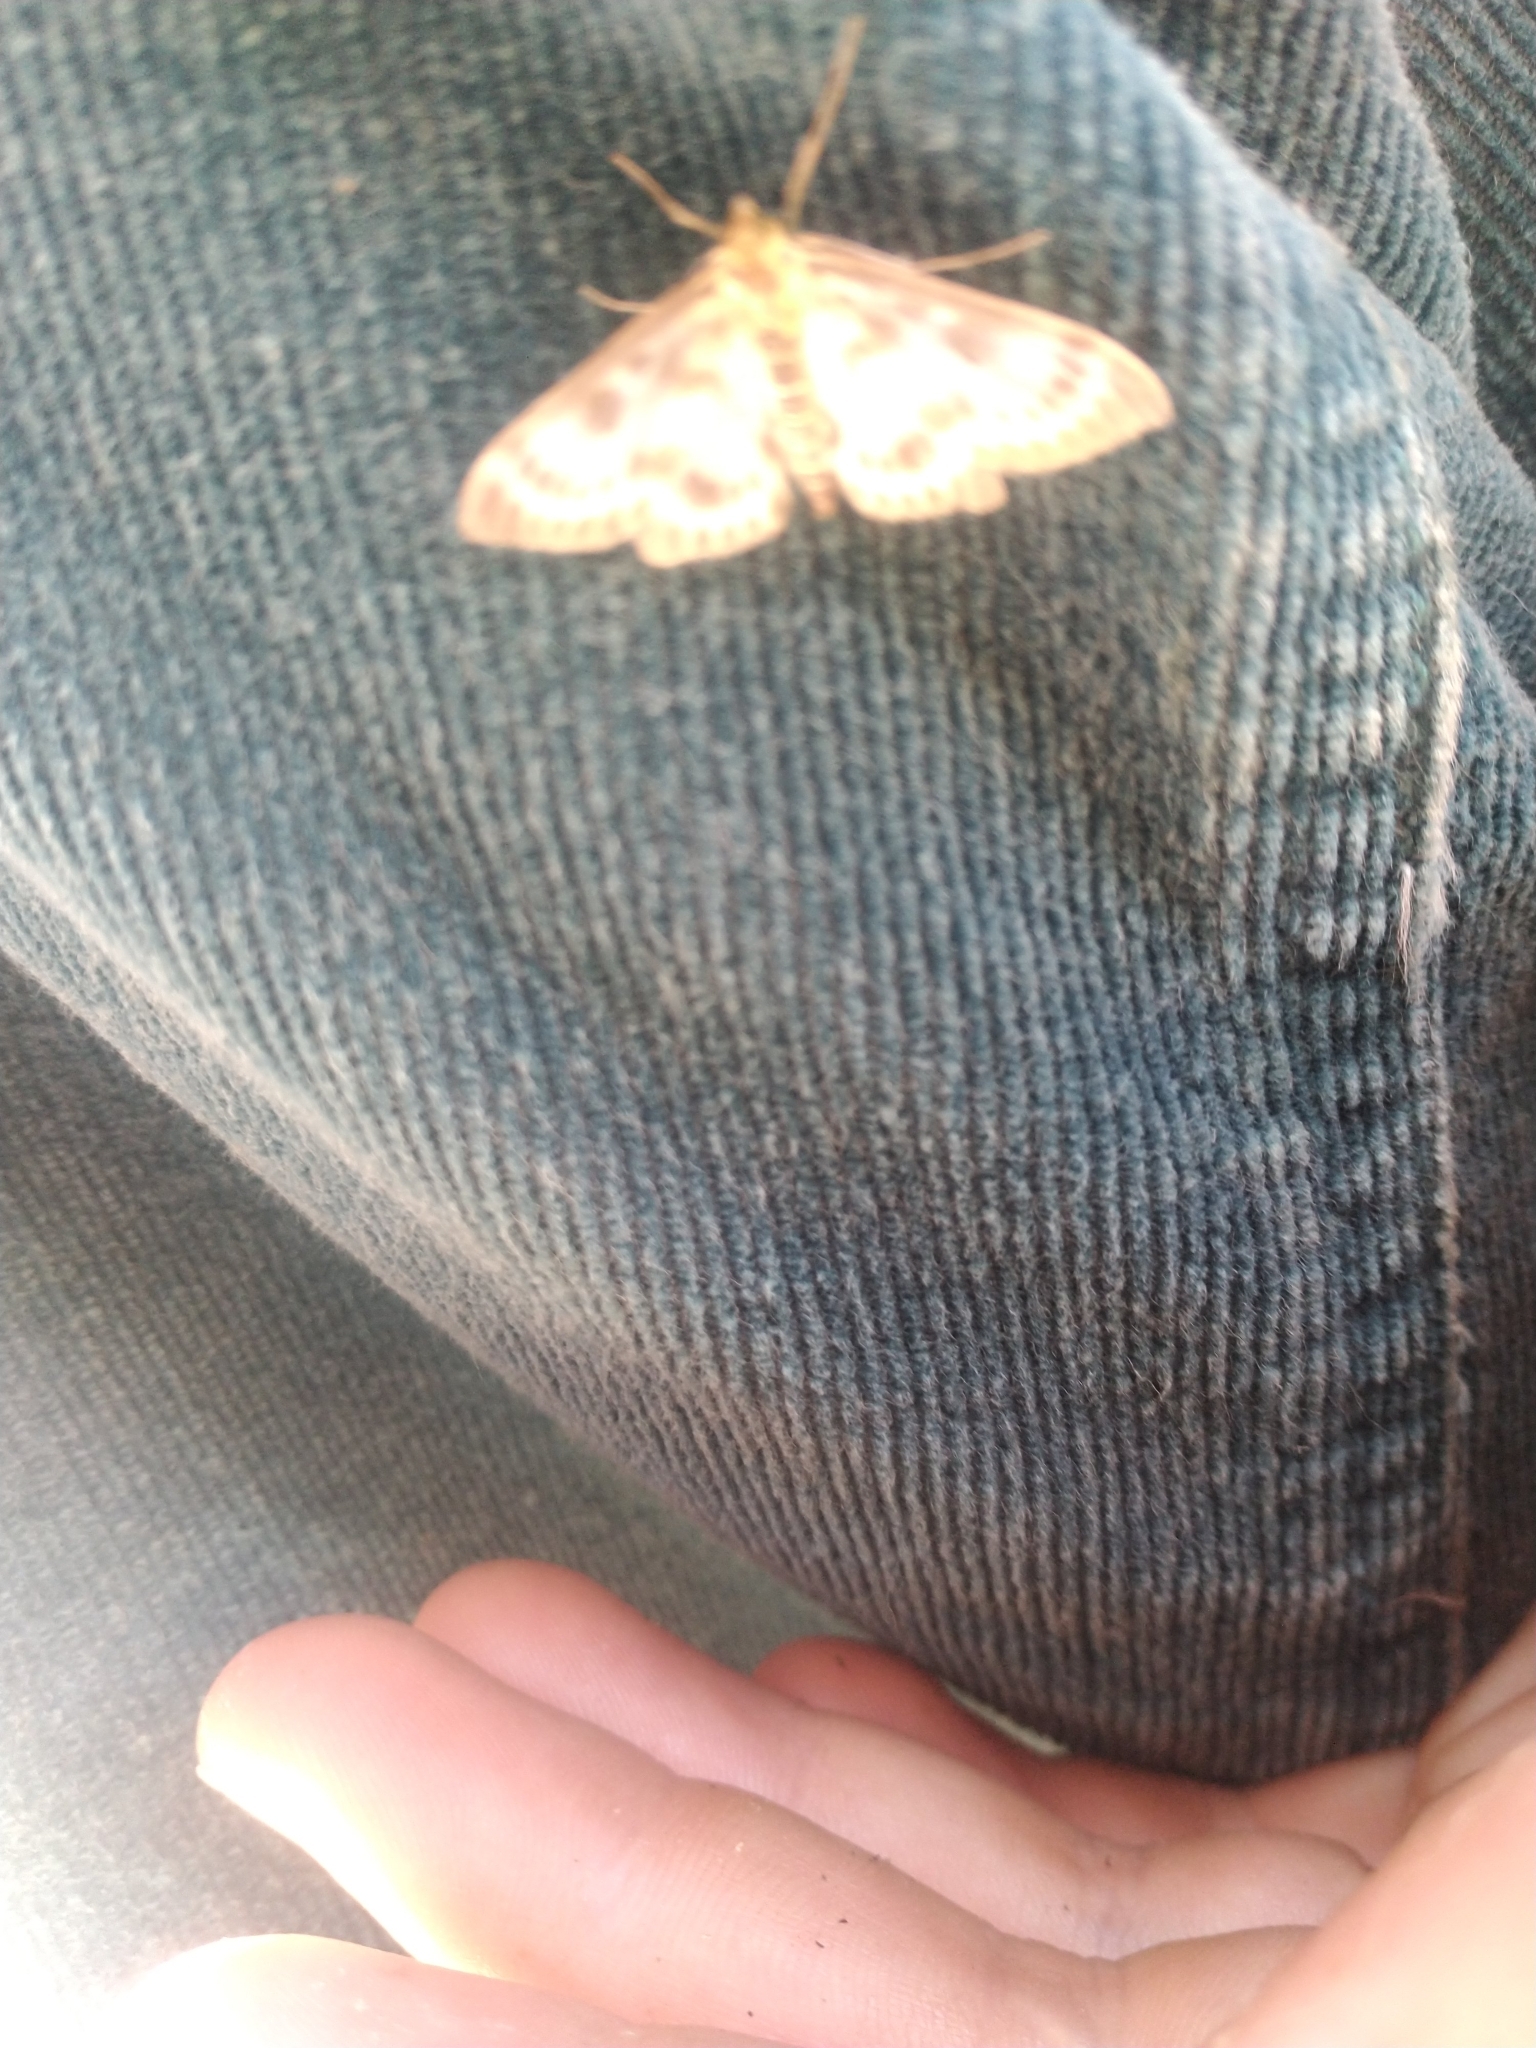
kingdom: Animalia
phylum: Arthropoda
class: Insecta
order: Lepidoptera
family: Crambidae
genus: Anania
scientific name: Anania hortulata
